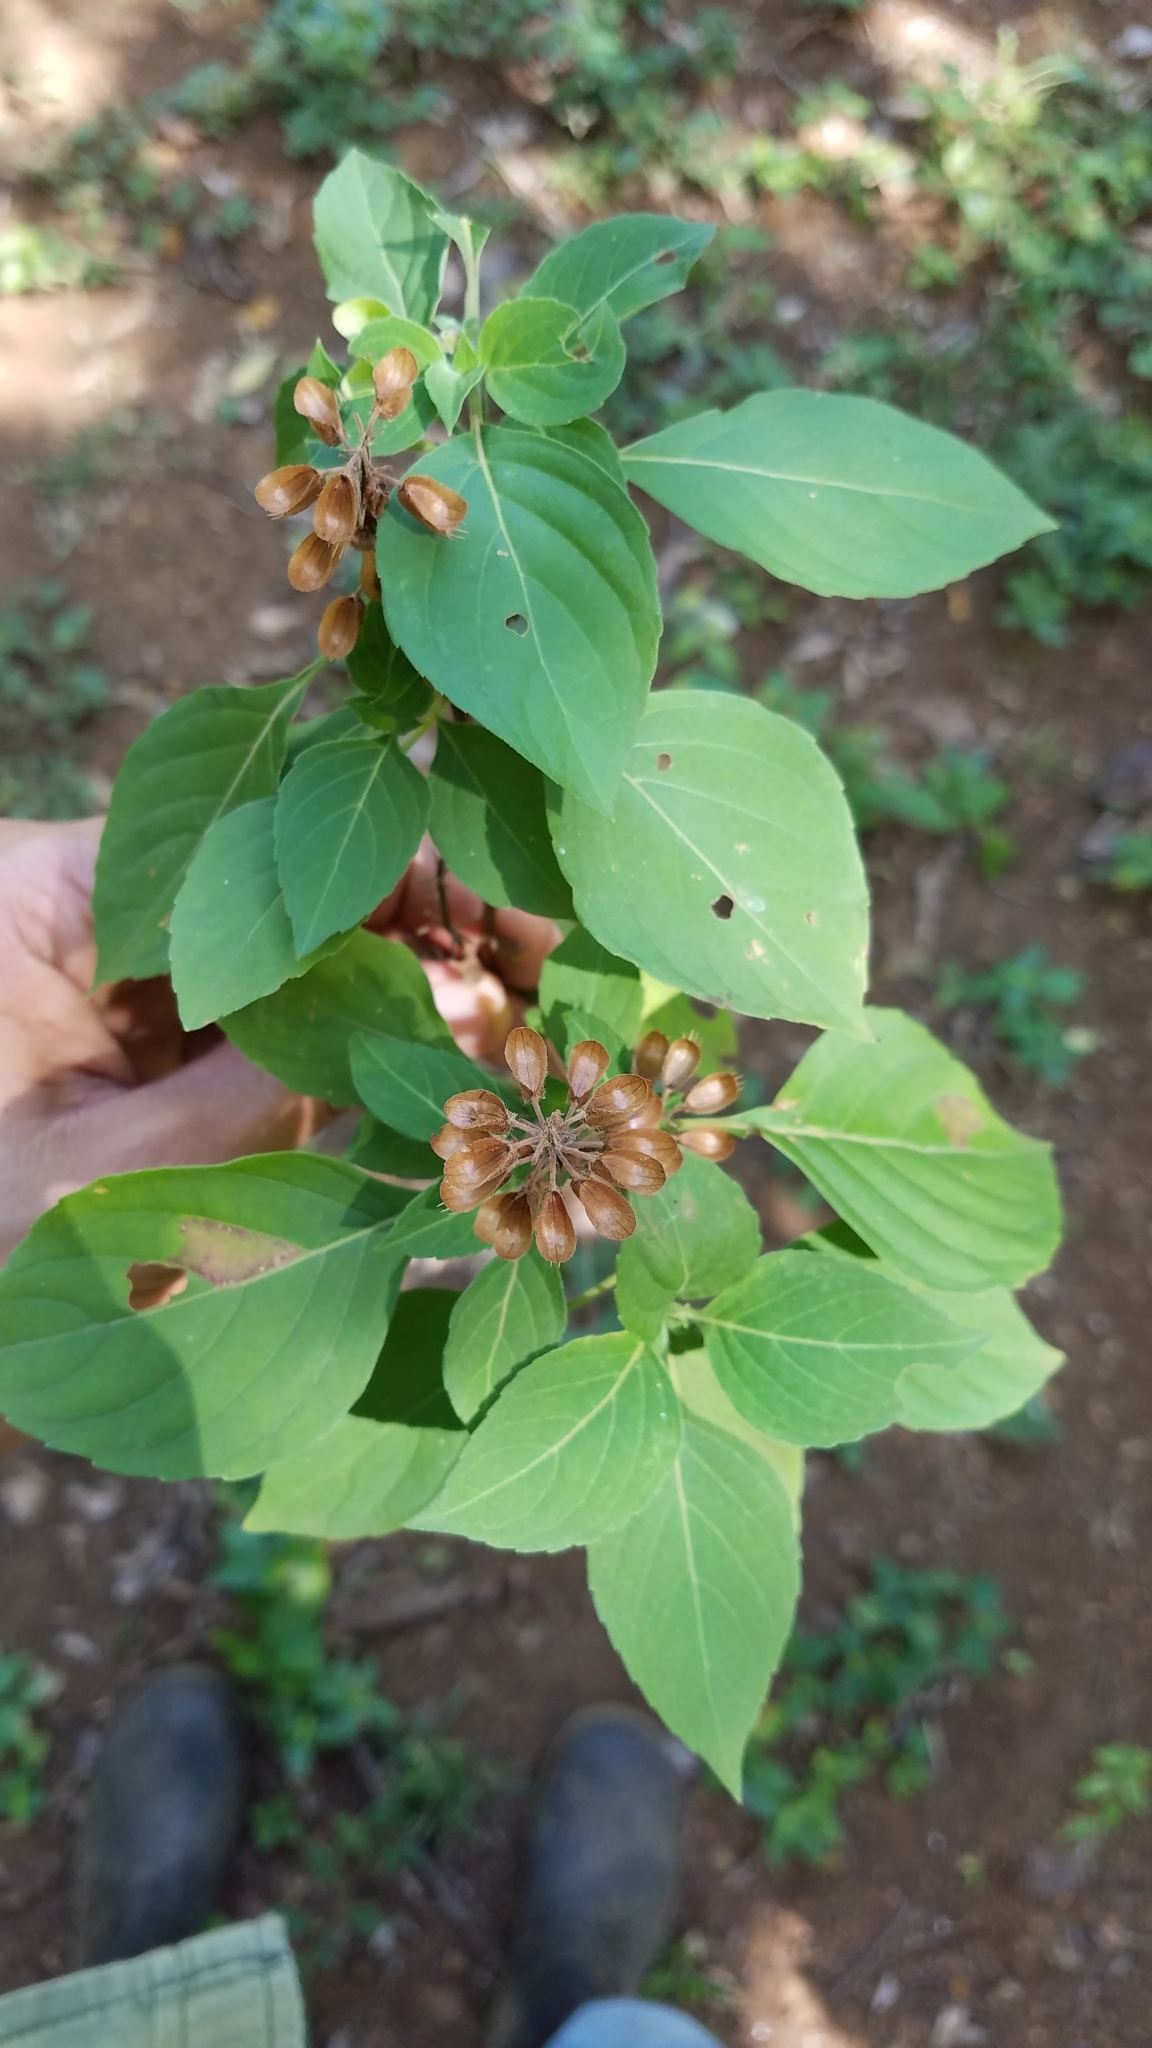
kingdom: Plantae
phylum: Tracheophyta
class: Magnoliopsida
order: Lamiales
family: Lamiaceae
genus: Ocimum
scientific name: Ocimum campechianum
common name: Mosquito basil
